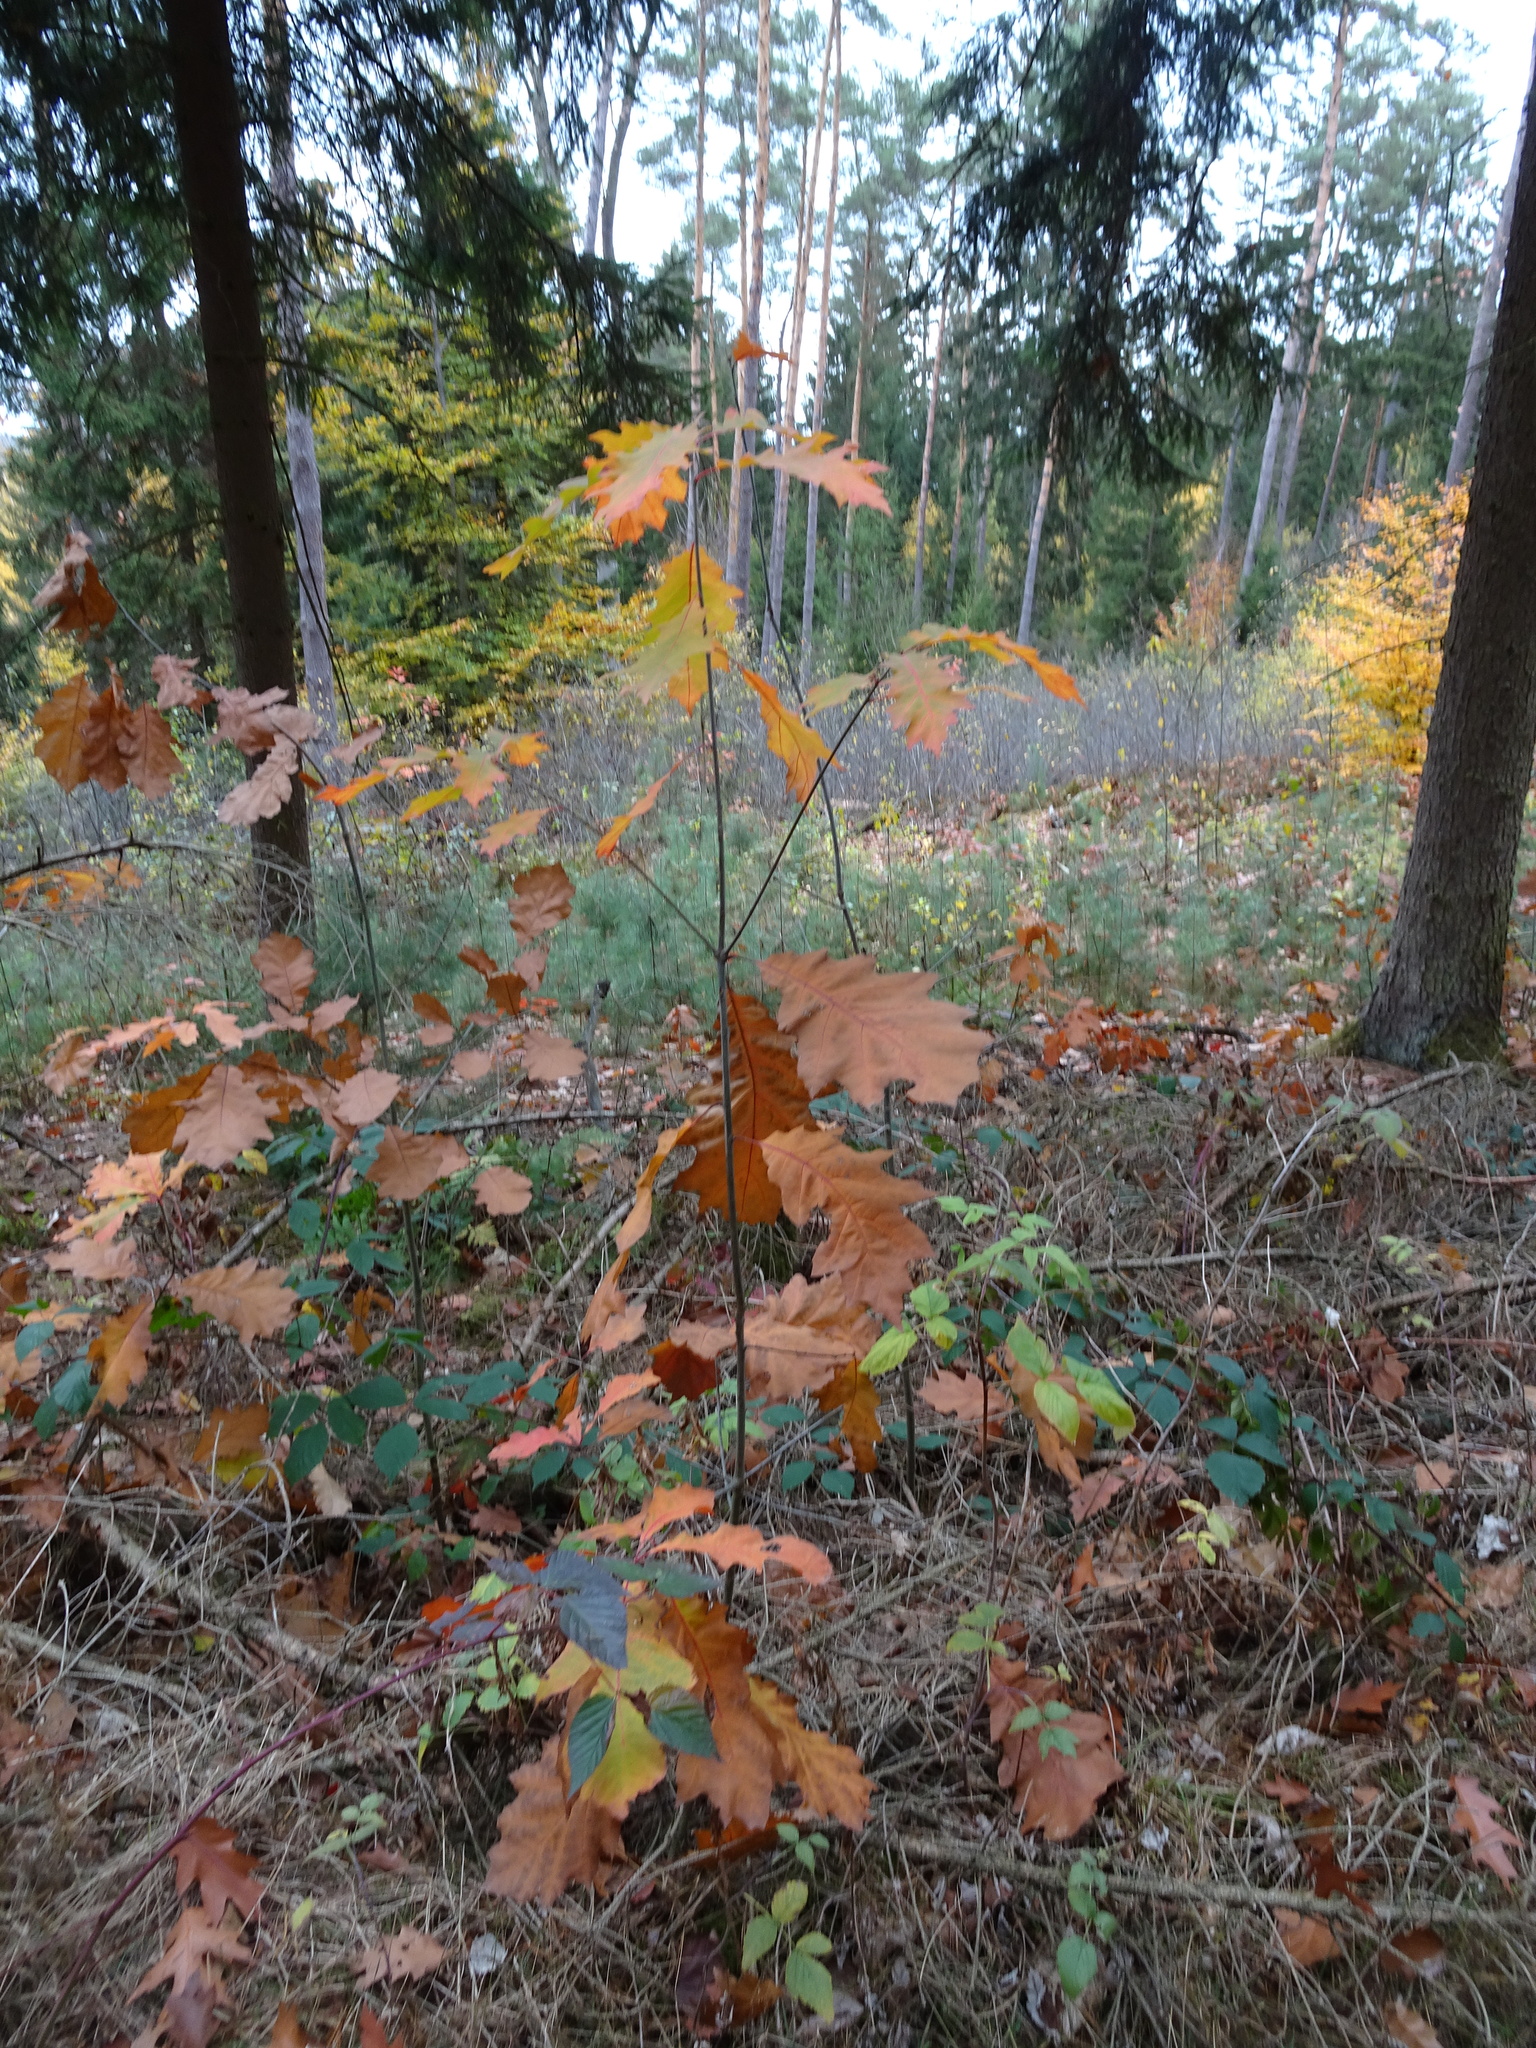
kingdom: Plantae
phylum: Tracheophyta
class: Magnoliopsida
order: Fagales
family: Fagaceae
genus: Quercus
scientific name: Quercus rubra
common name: Red oak
